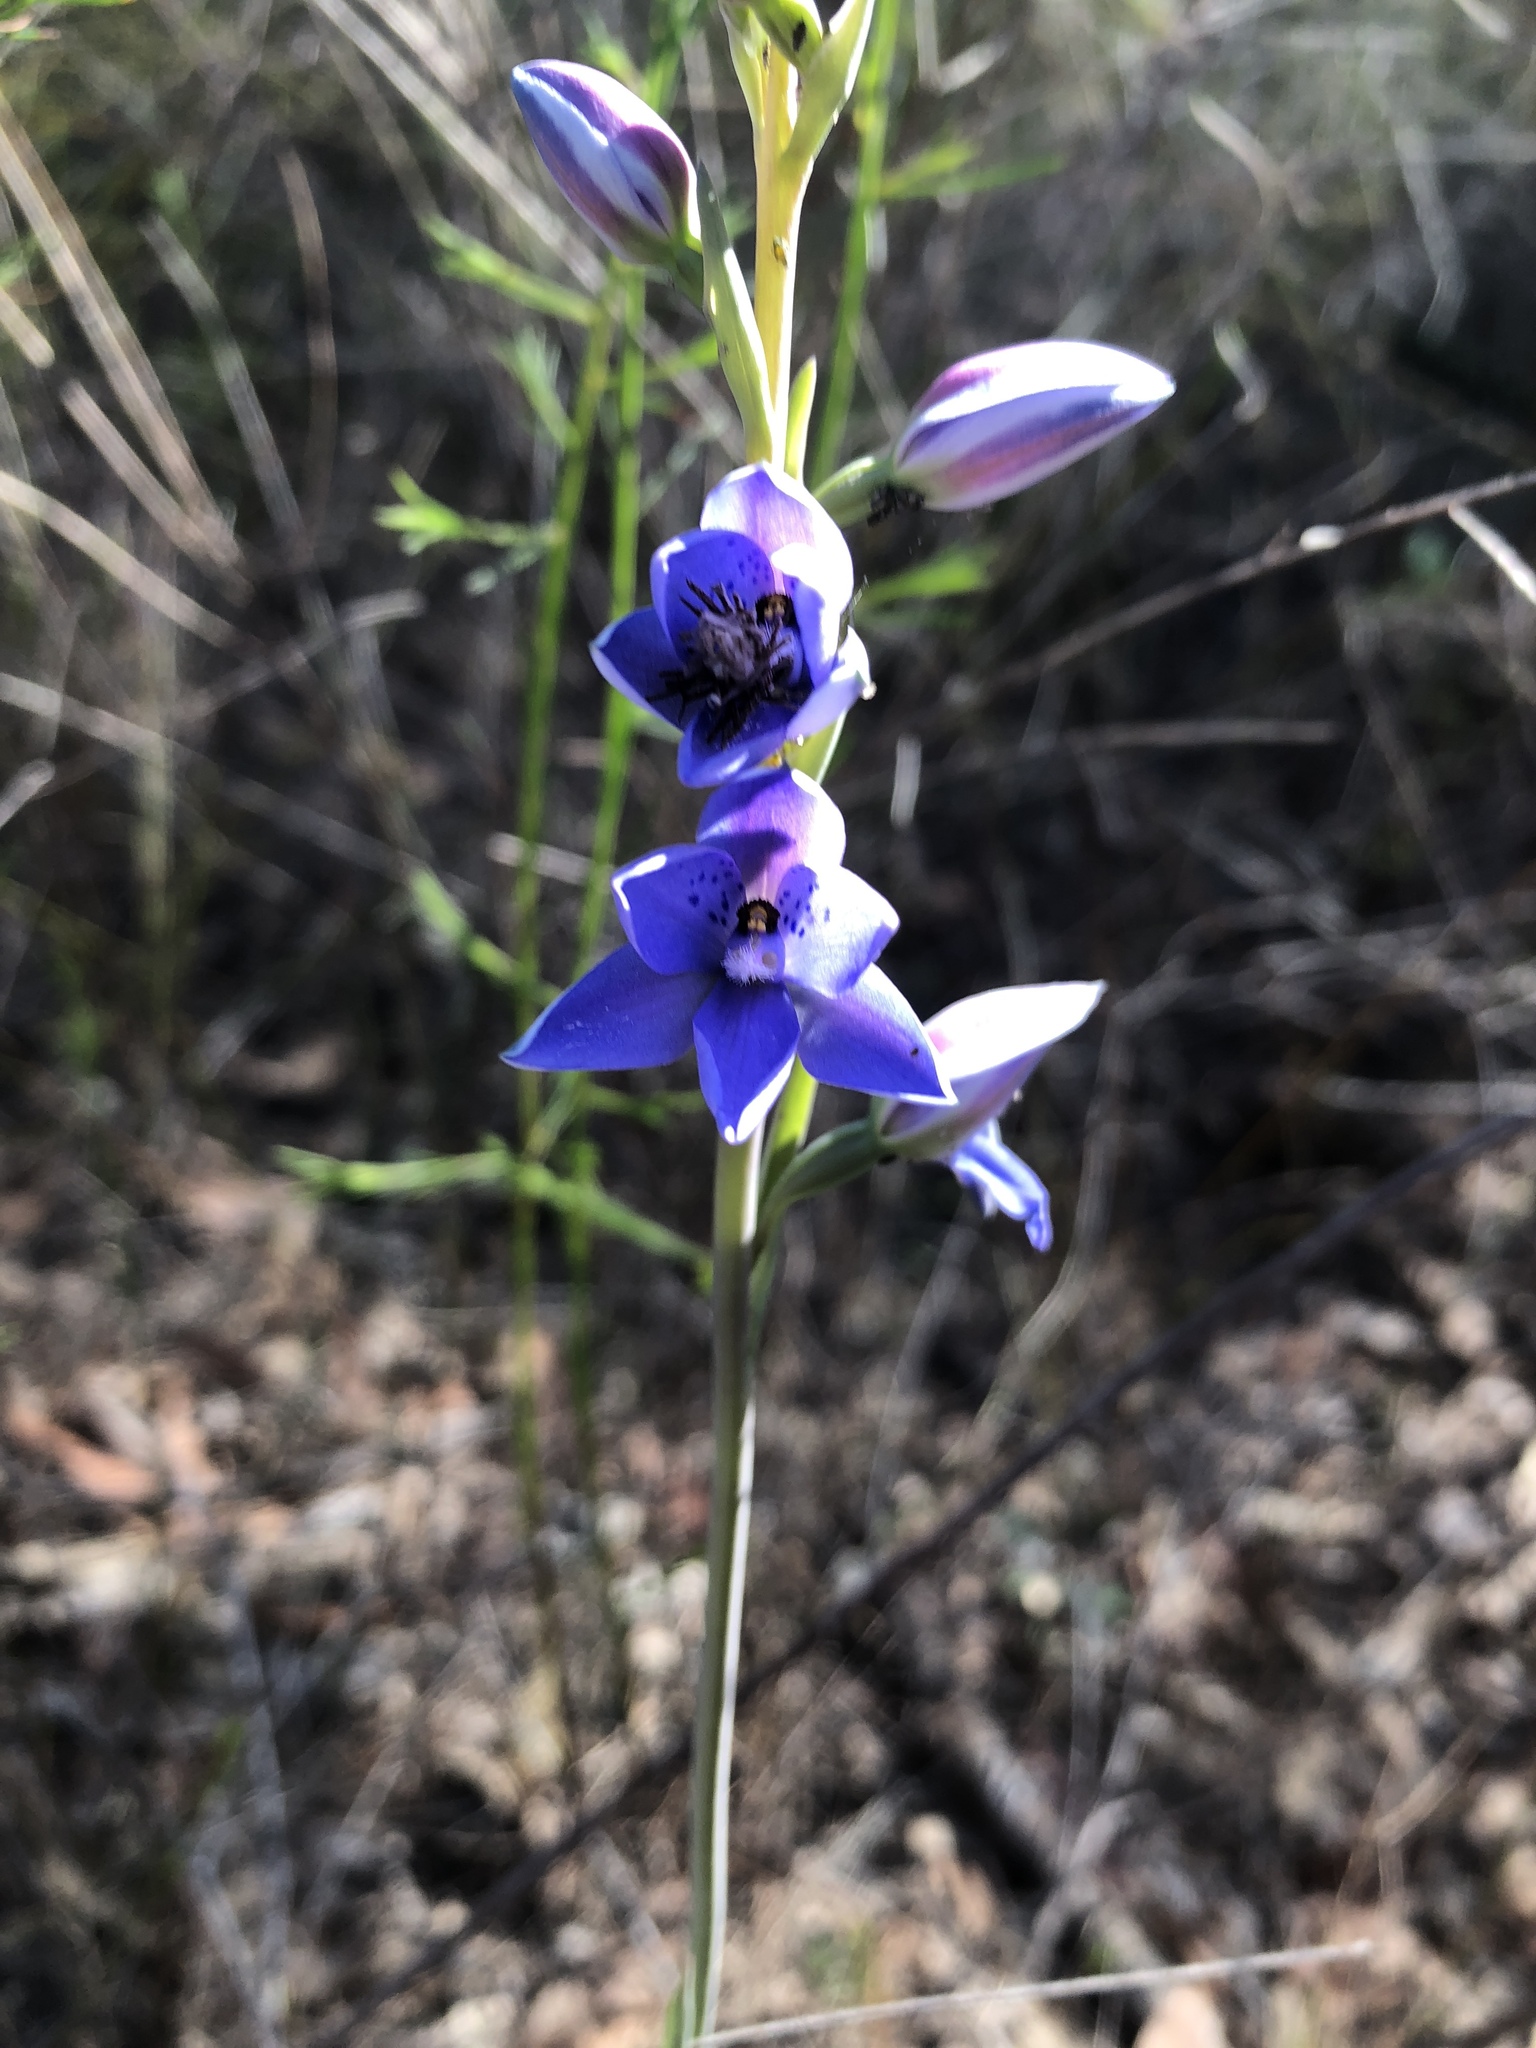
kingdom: Plantae
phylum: Tracheophyta
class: Liliopsida
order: Asparagales
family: Orchidaceae
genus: Thelymitra
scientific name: Thelymitra ixioides
